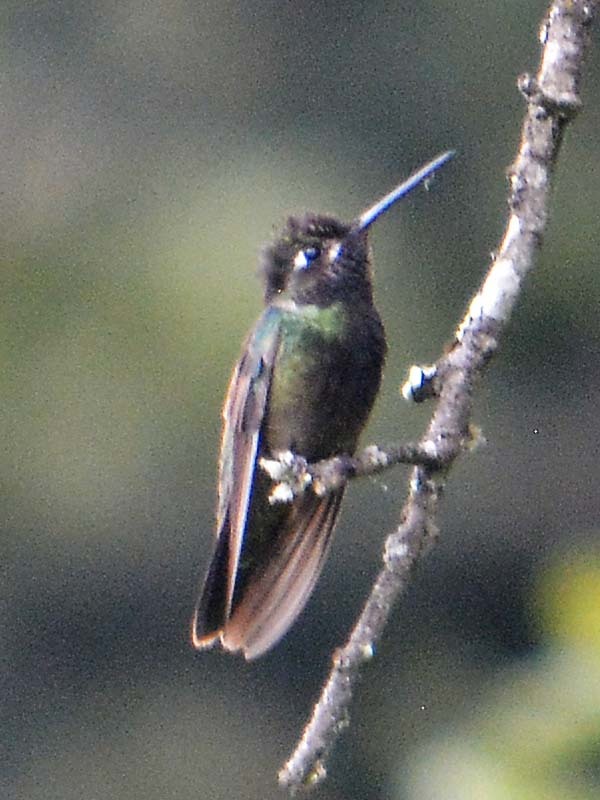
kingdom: Animalia
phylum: Chordata
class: Aves
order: Apodiformes
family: Trochilidae
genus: Eugenes
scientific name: Eugenes fulgens
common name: Magnificent hummingbird
